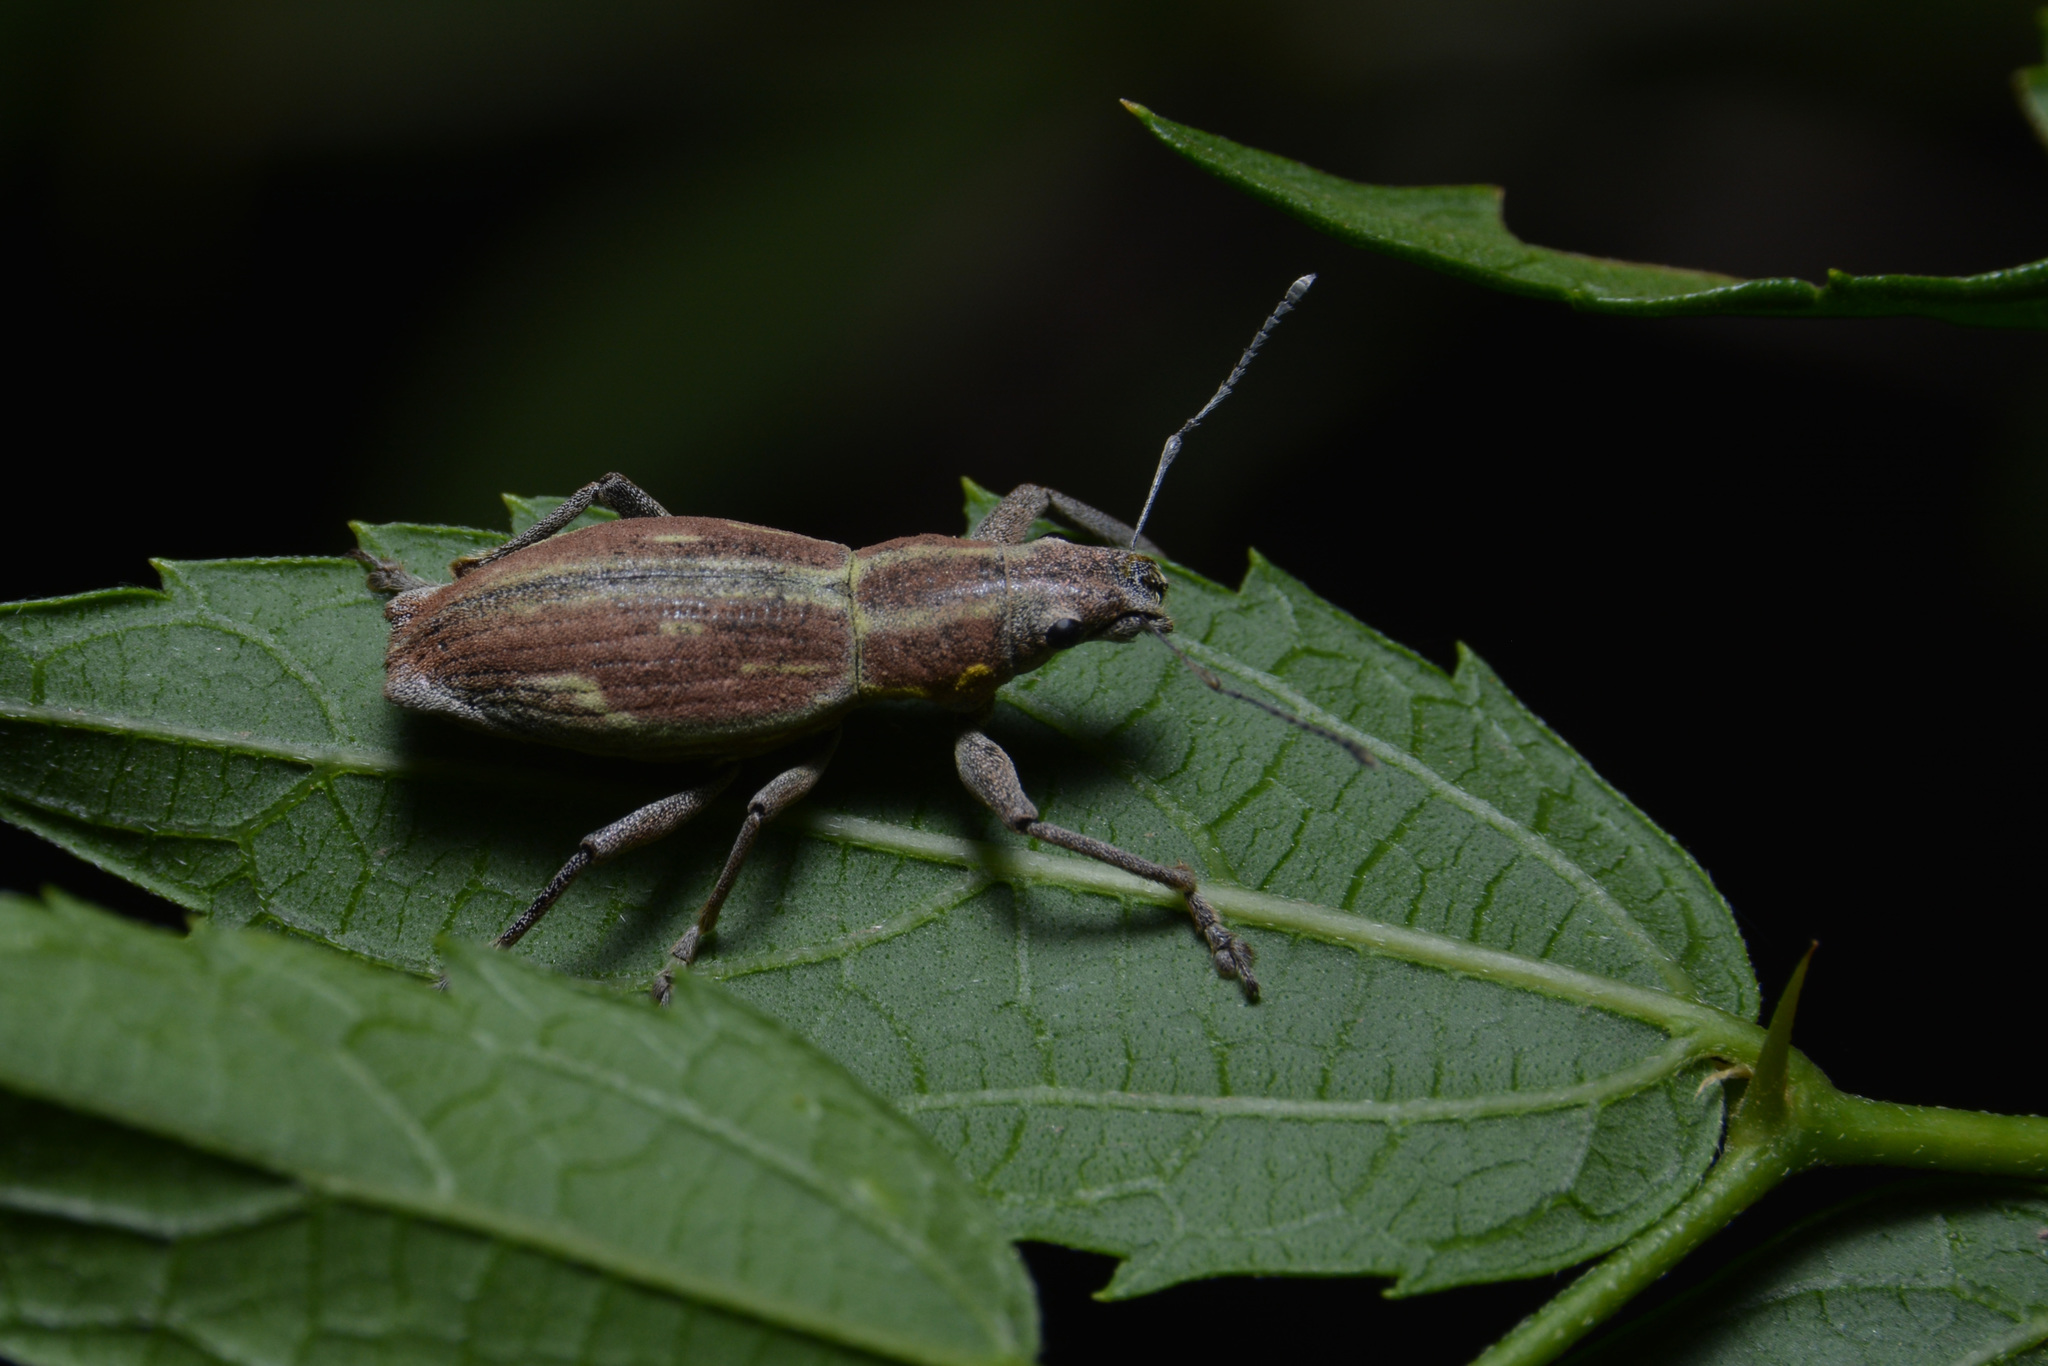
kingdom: Animalia
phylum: Arthropoda
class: Insecta
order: Coleoptera
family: Curculionidae
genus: Naupactus
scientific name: Naupactus xanthographus
